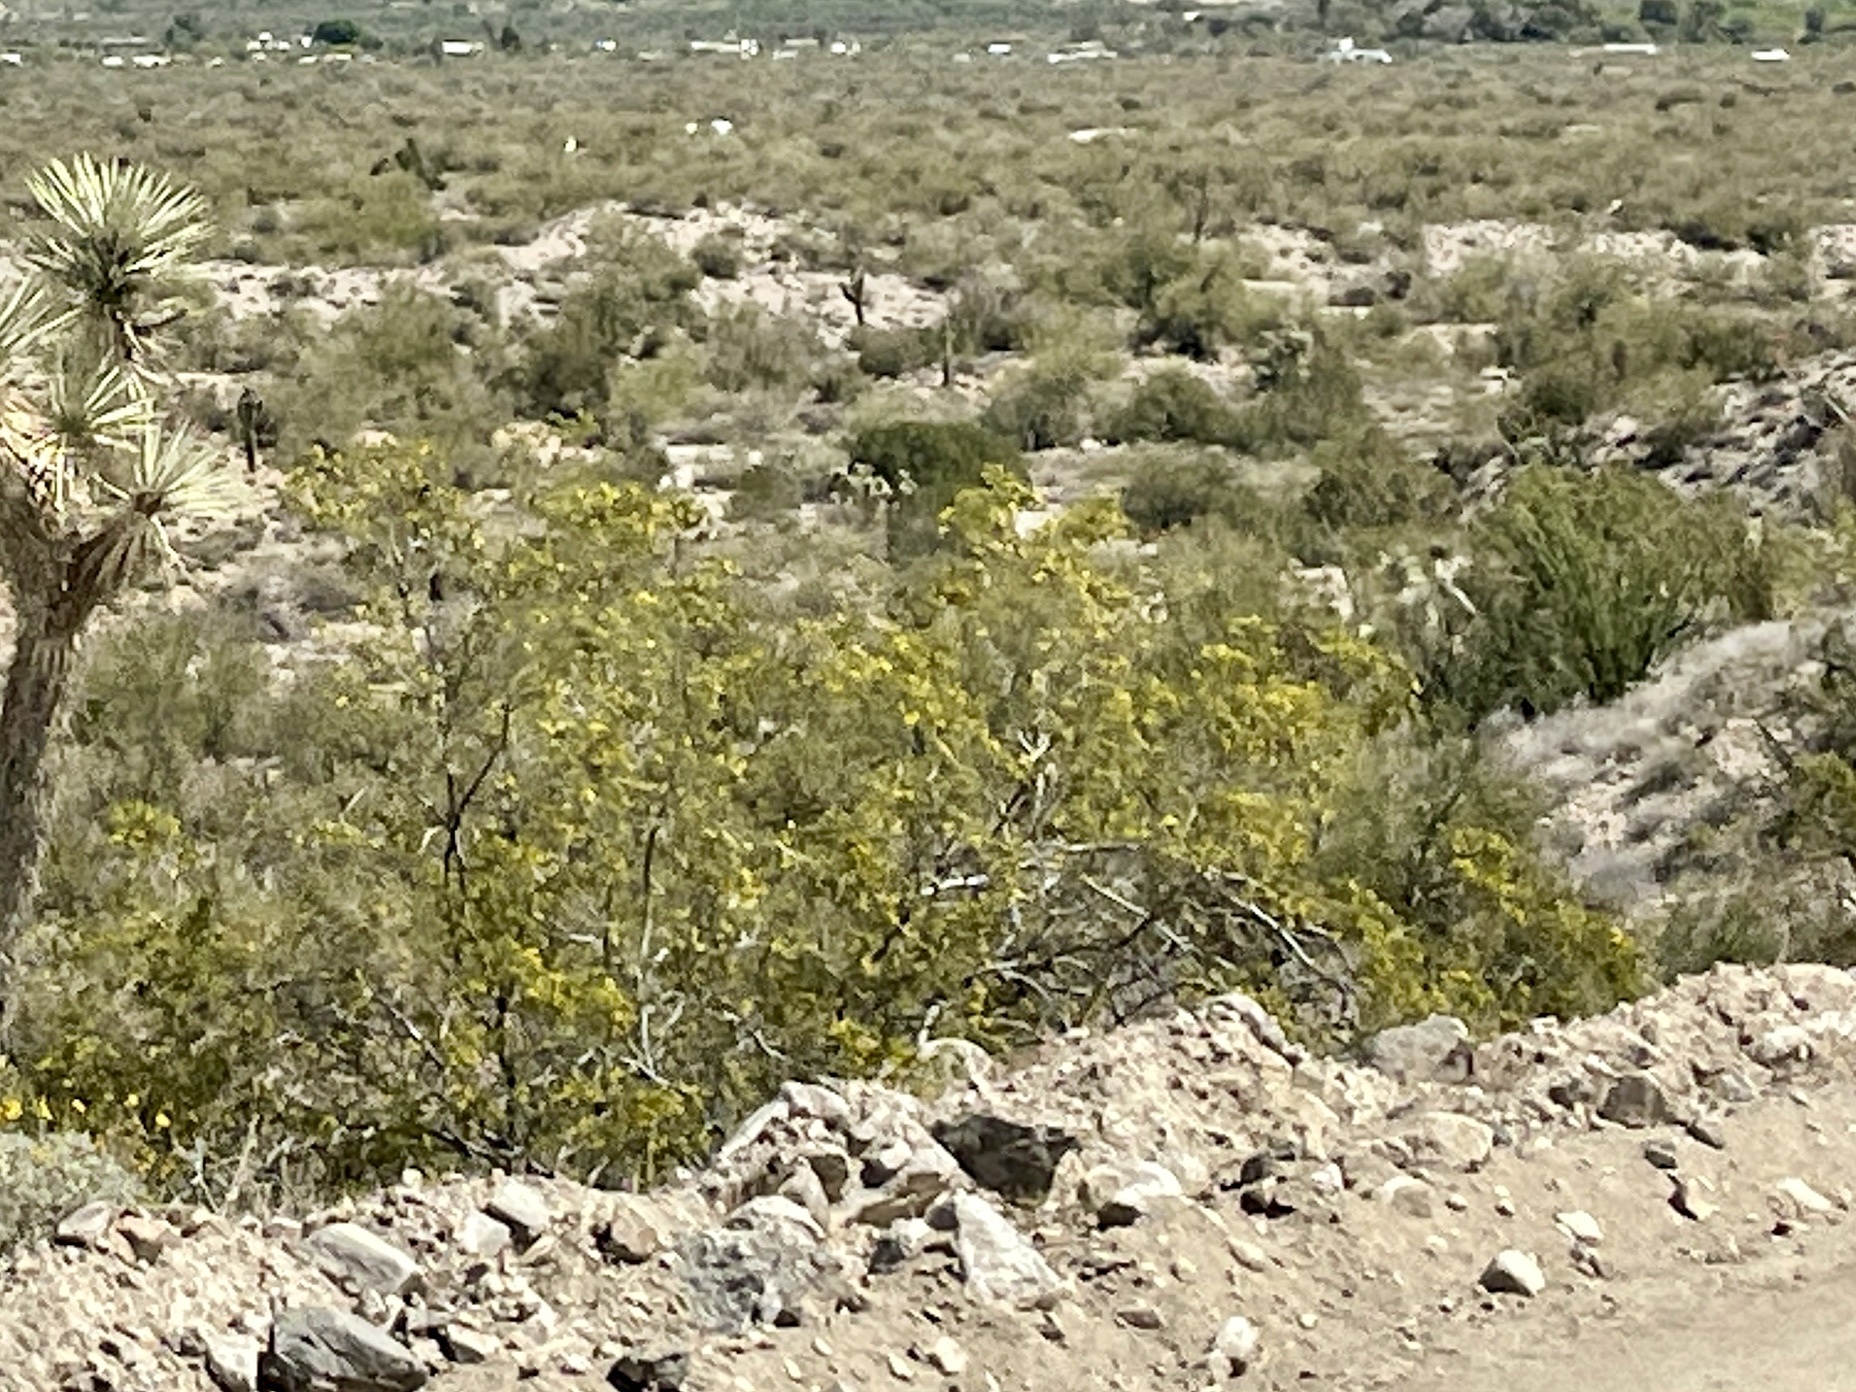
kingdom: Plantae
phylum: Tracheophyta
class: Magnoliopsida
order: Zygophyllales
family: Zygophyllaceae
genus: Larrea
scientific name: Larrea tridentata
